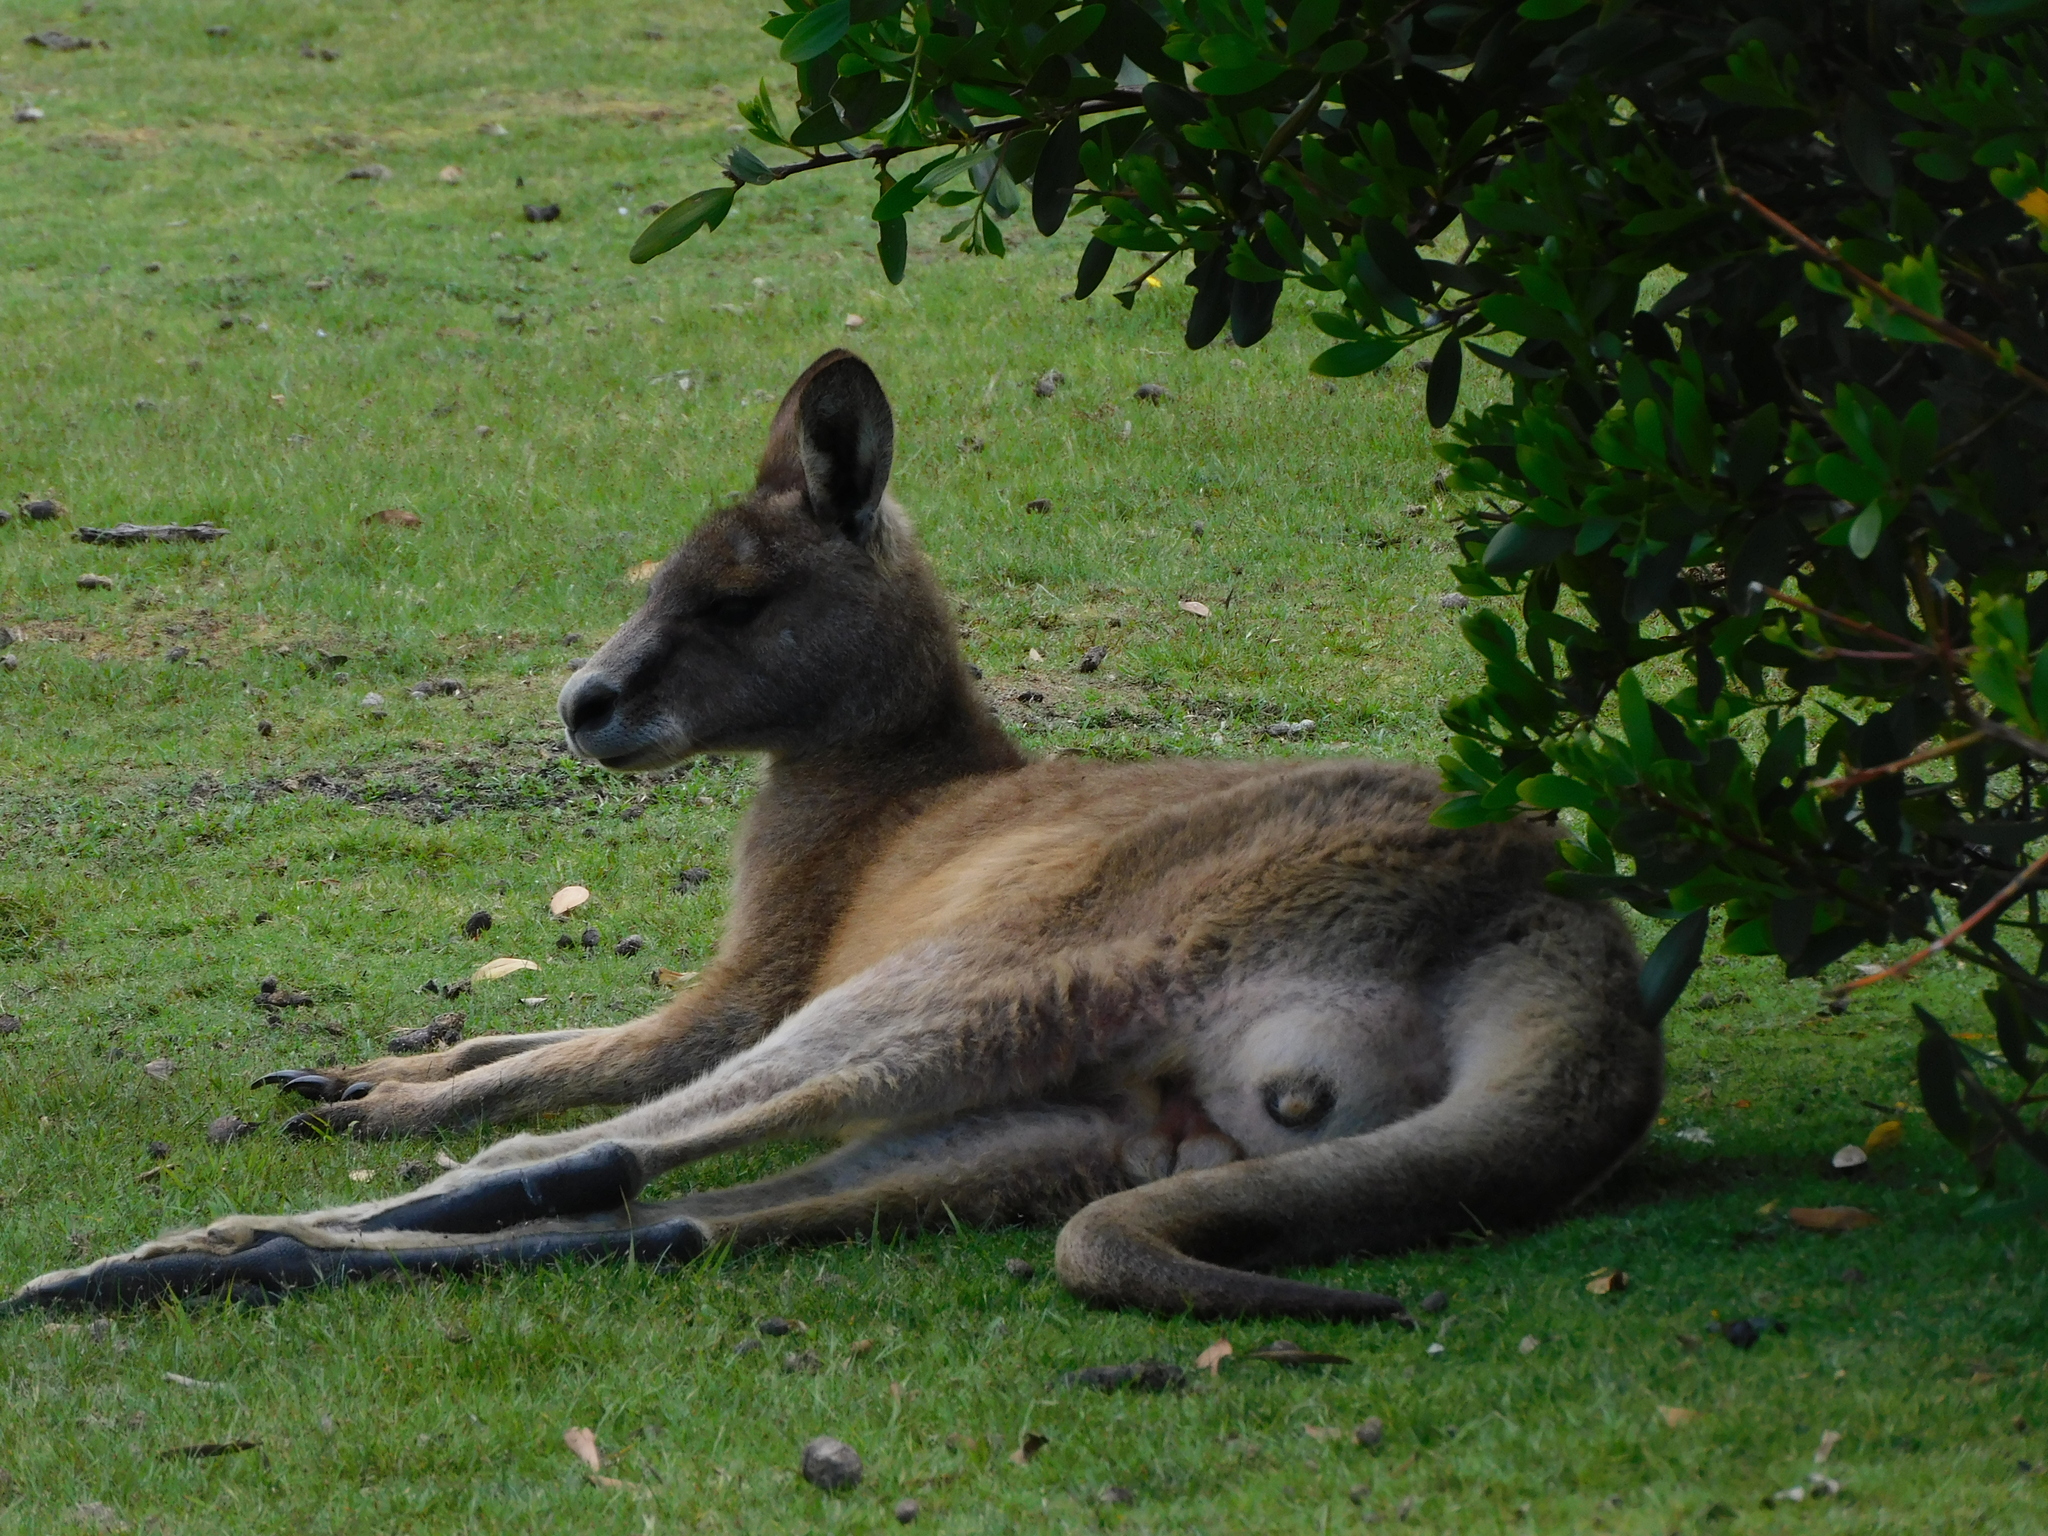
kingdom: Animalia
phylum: Chordata
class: Mammalia
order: Diprotodontia
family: Macropodidae
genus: Macropus
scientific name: Macropus giganteus
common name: Eastern grey kangaroo
